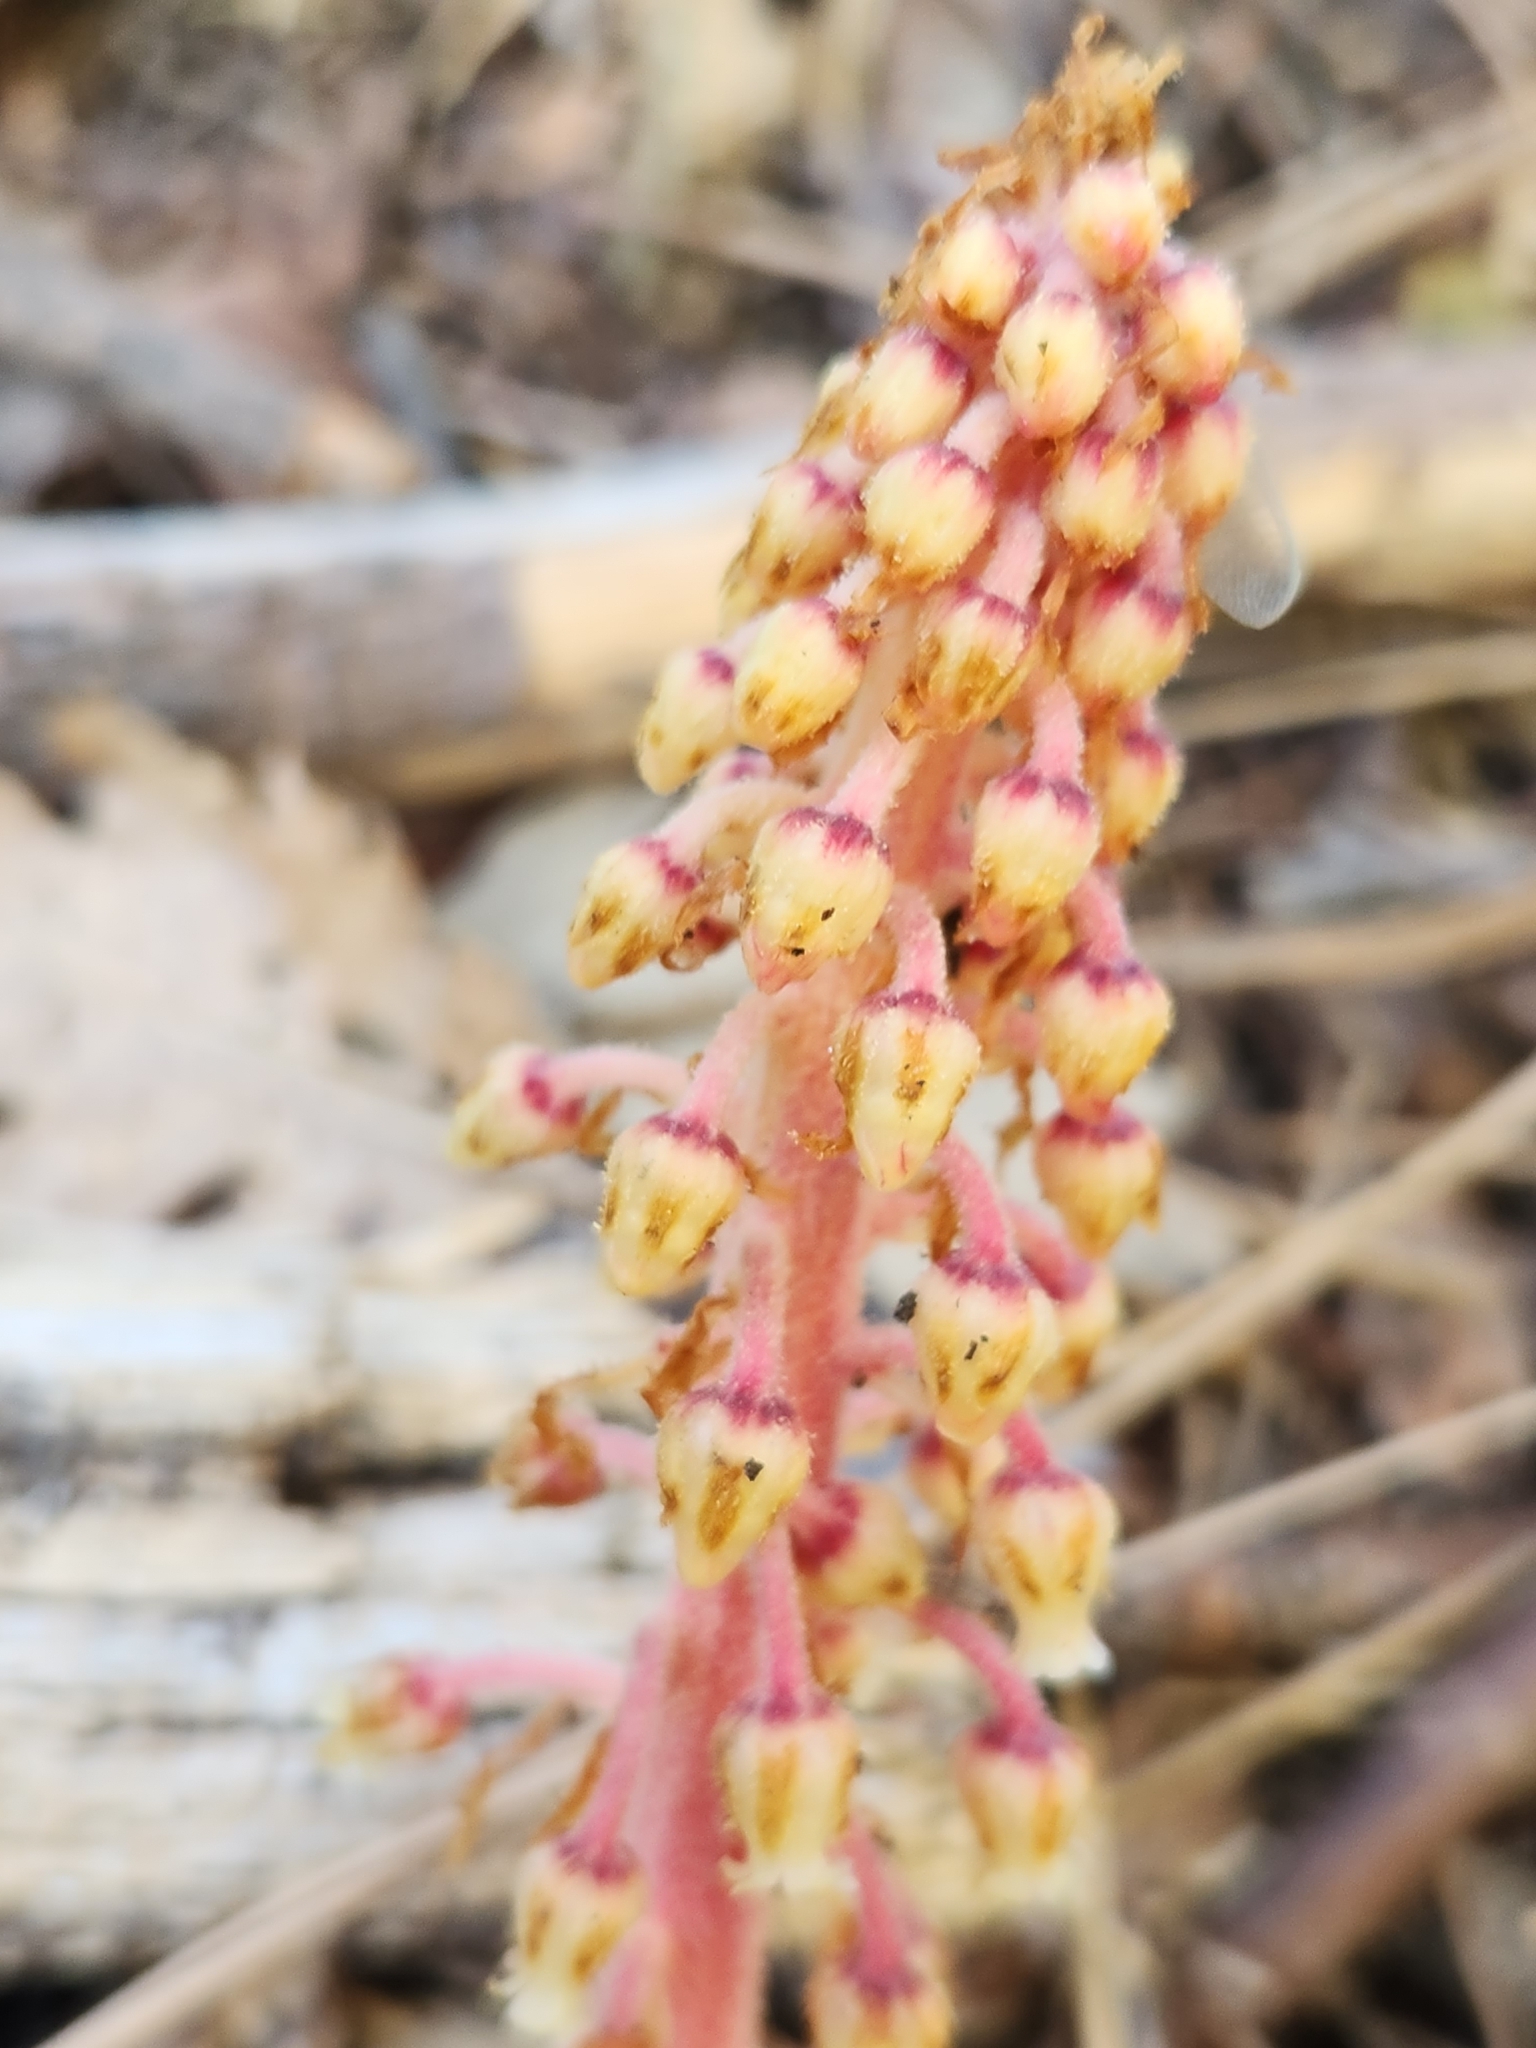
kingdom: Plantae
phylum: Tracheophyta
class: Magnoliopsida
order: Ericales
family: Ericaceae
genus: Pterospora
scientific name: Pterospora andromedea
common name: Giant bird's-nest
